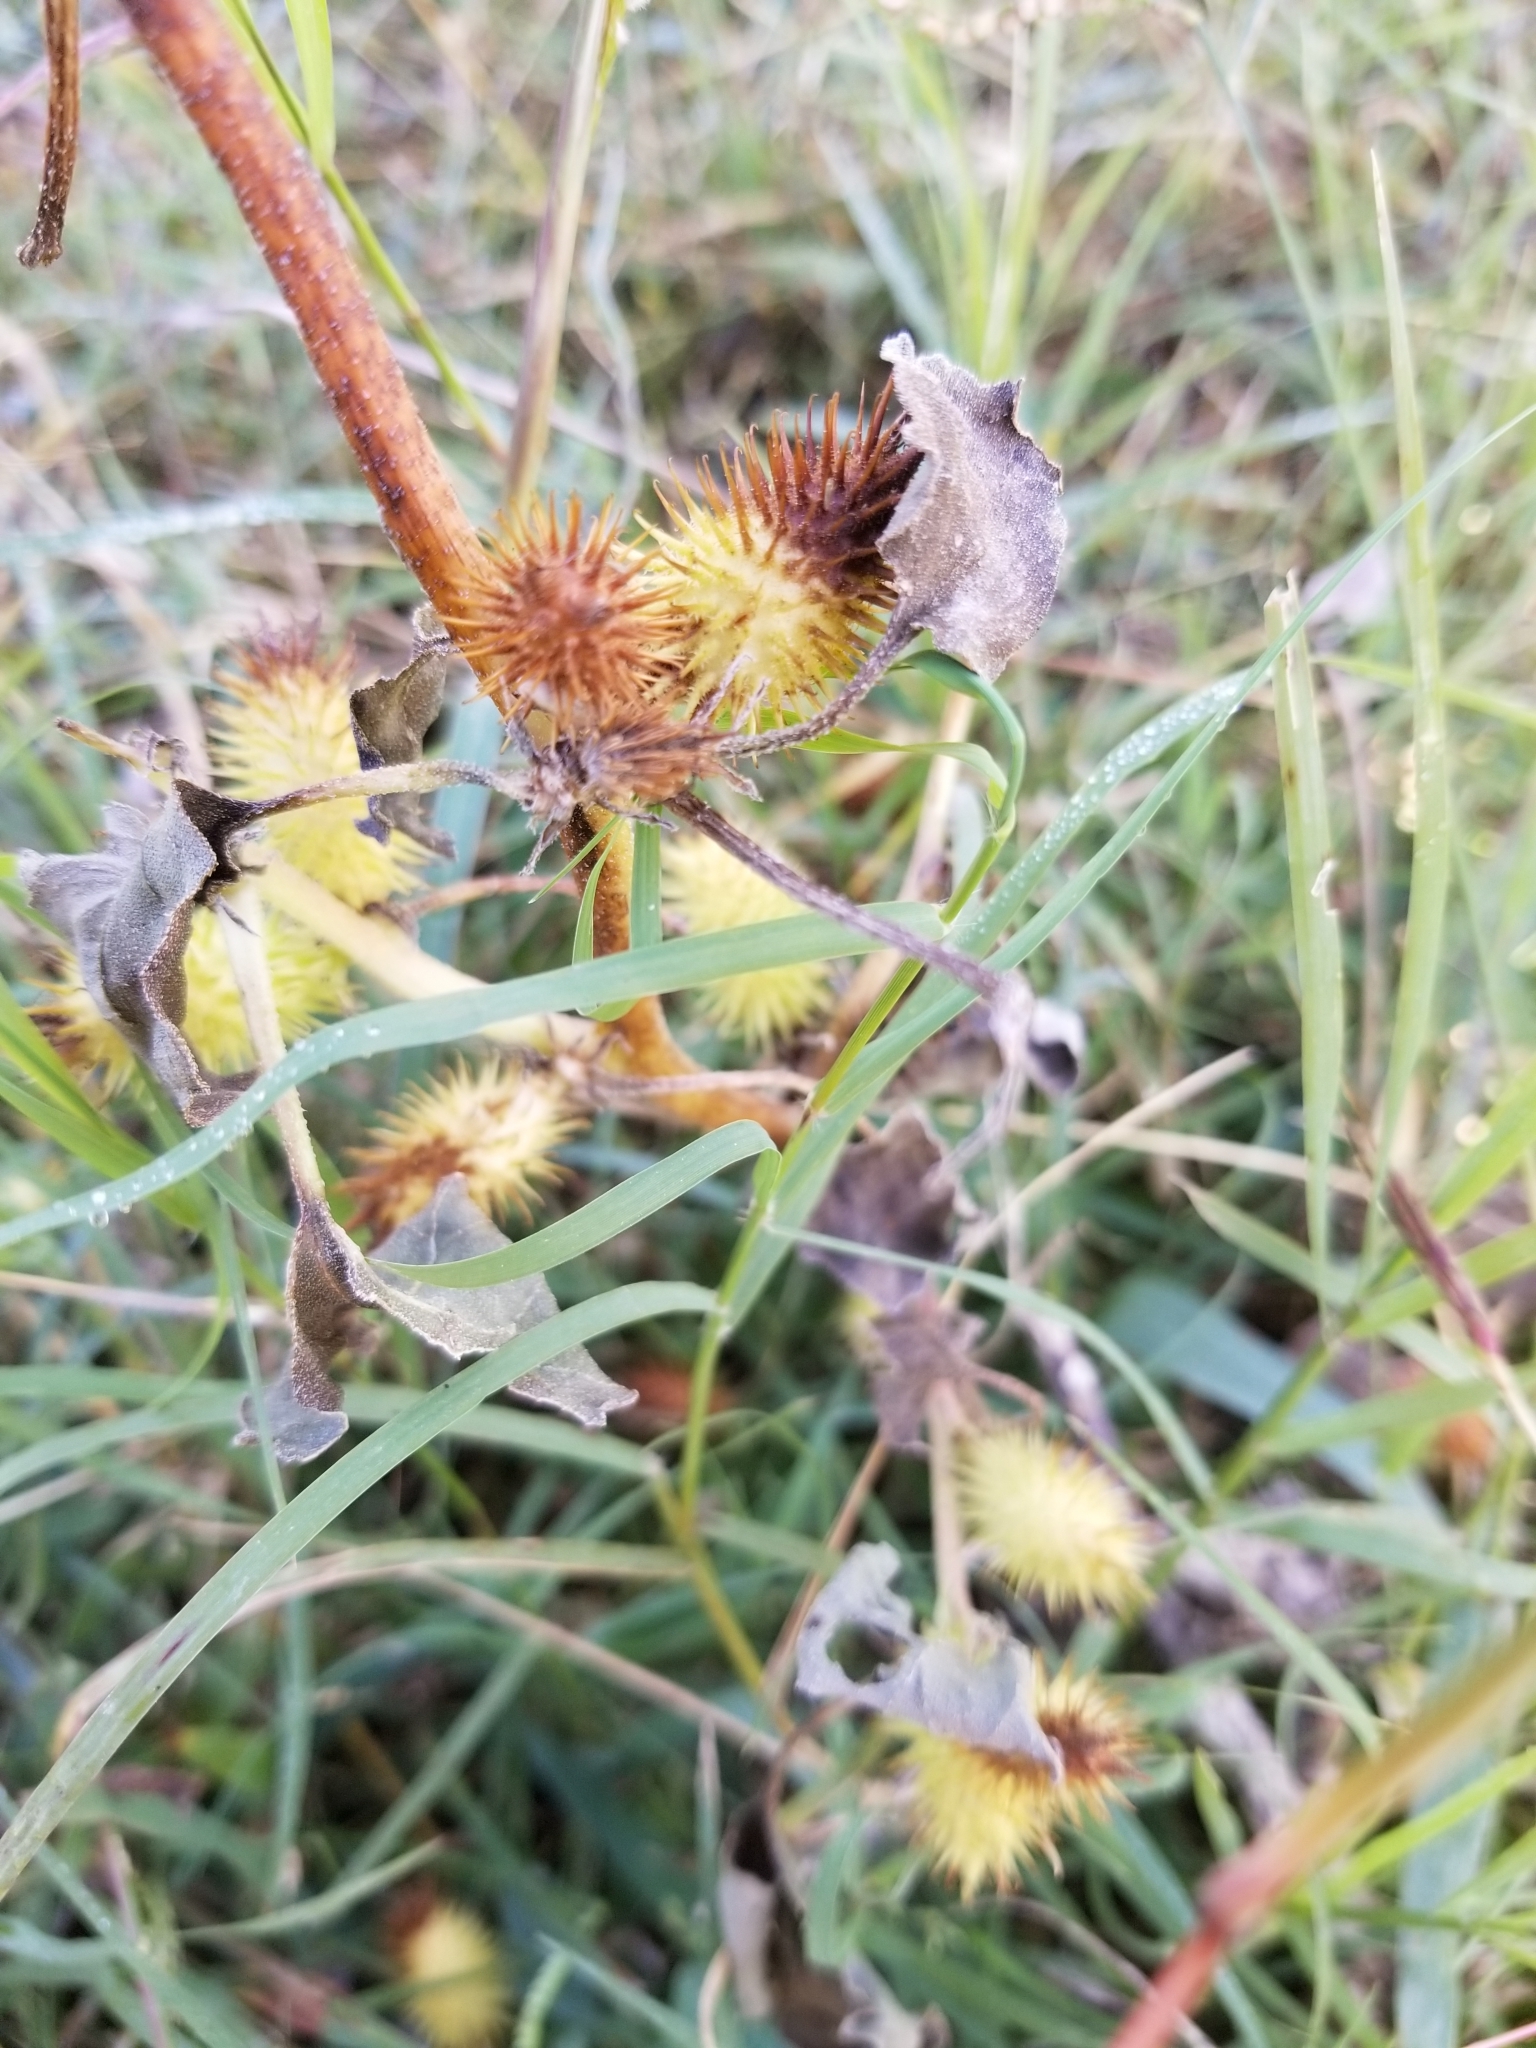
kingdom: Plantae
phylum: Tracheophyta
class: Magnoliopsida
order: Asterales
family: Asteraceae
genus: Xanthium
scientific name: Xanthium strumarium
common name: Rough cocklebur
